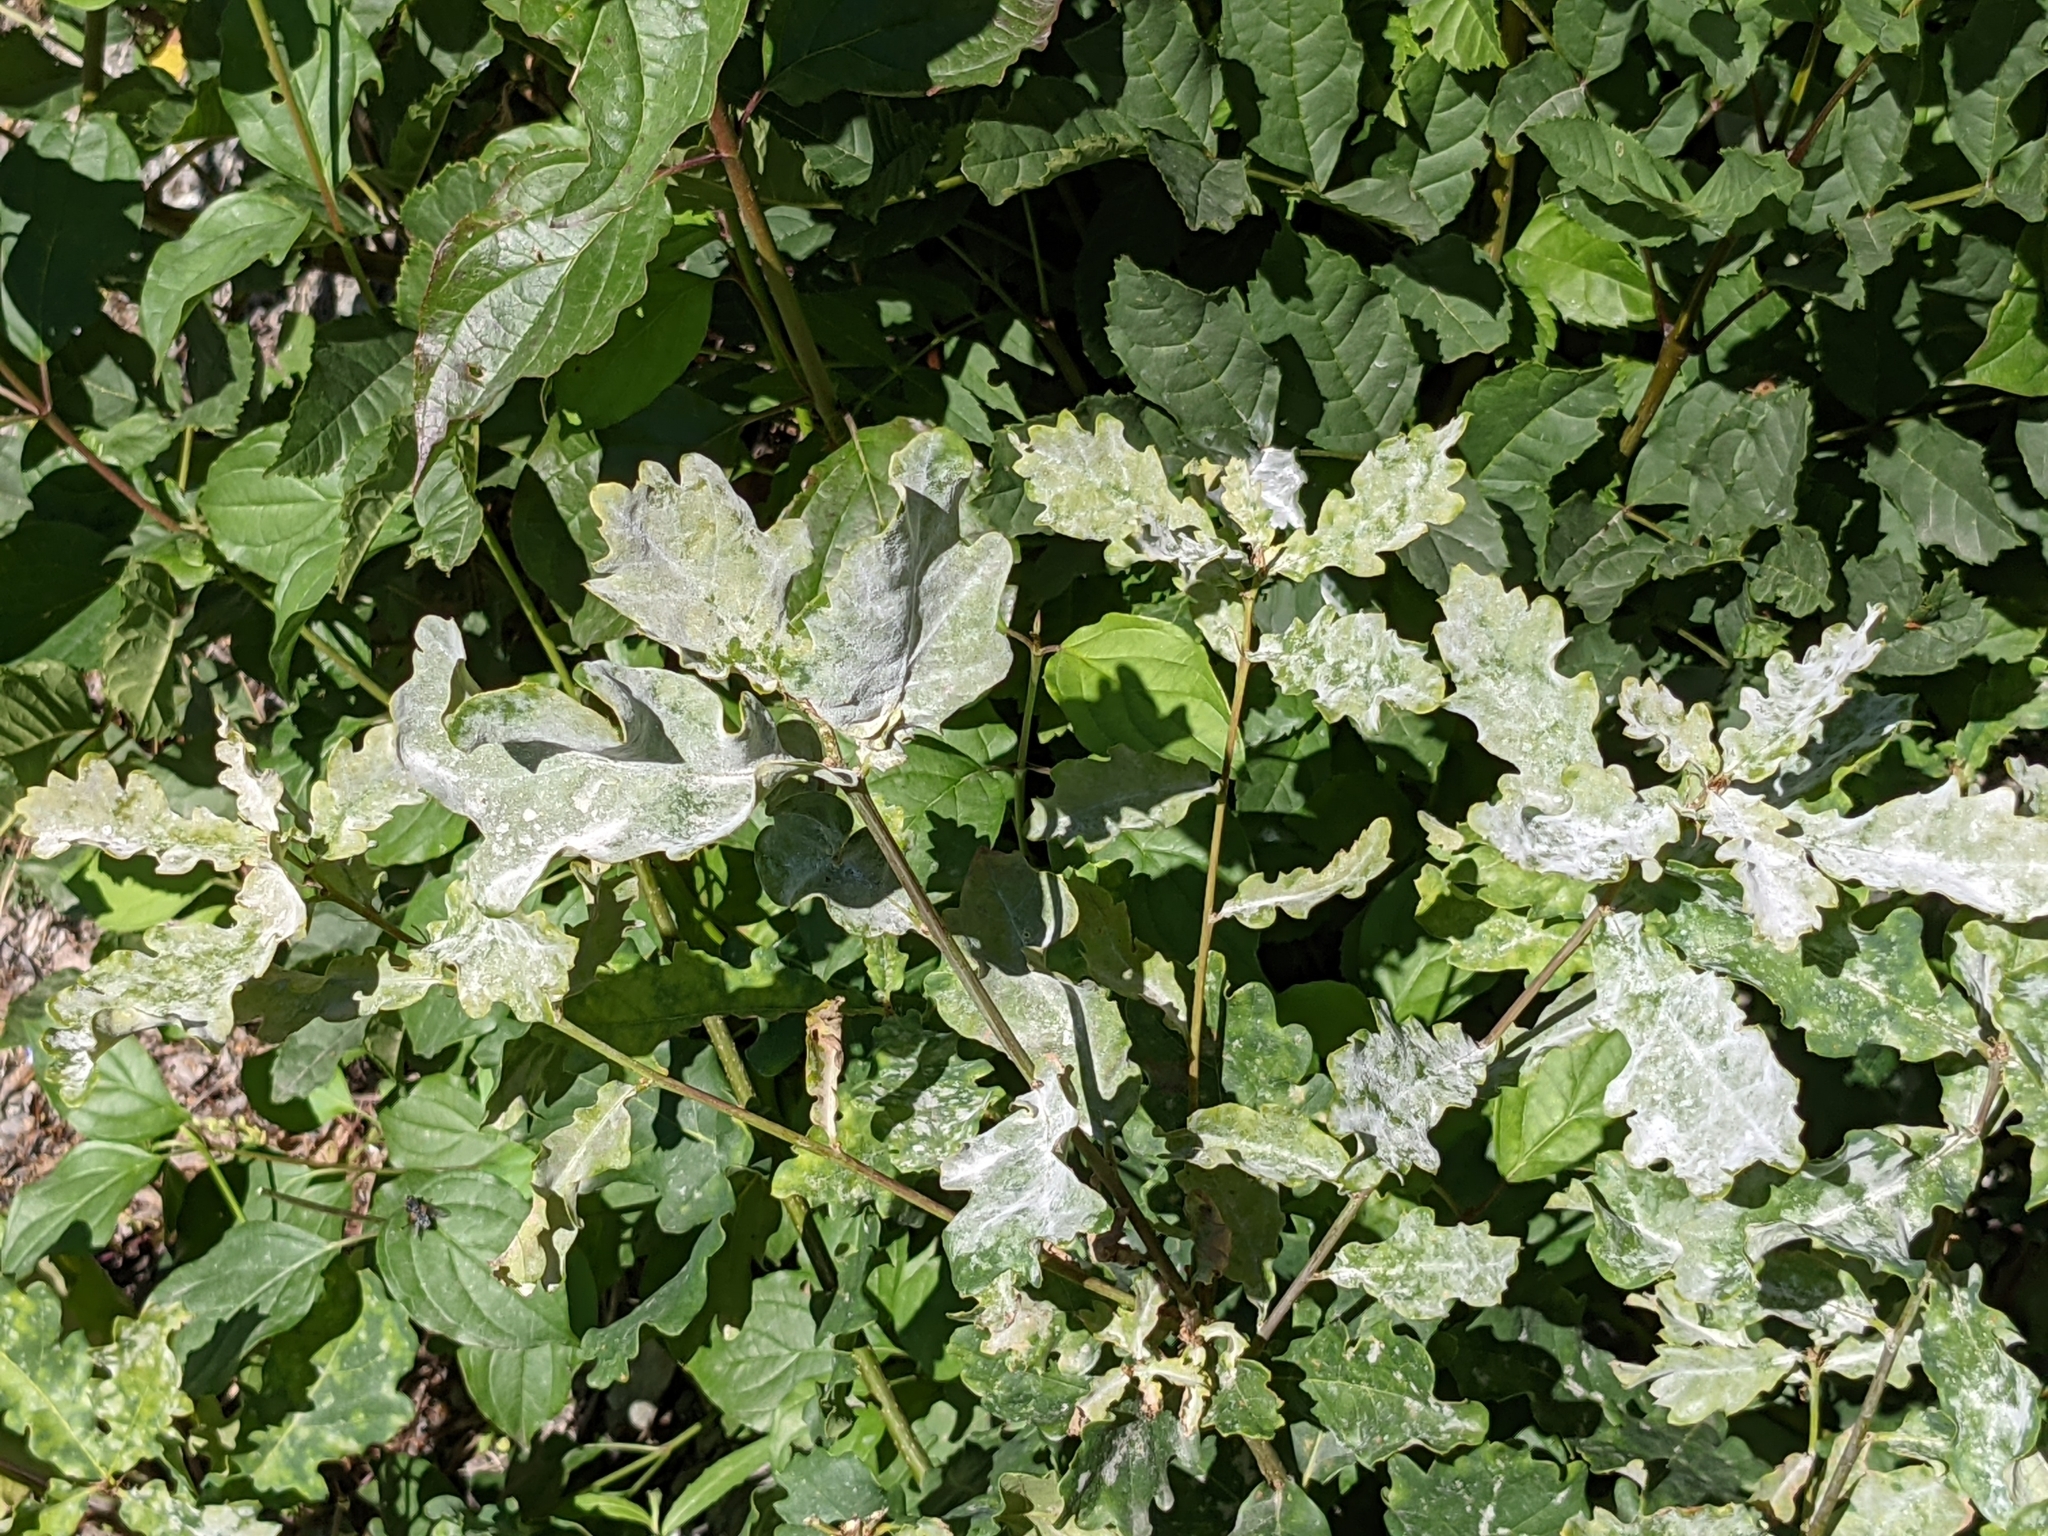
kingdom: Fungi
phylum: Ascomycota
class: Leotiomycetes
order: Helotiales
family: Erysiphaceae
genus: Erysiphe
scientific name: Erysiphe
